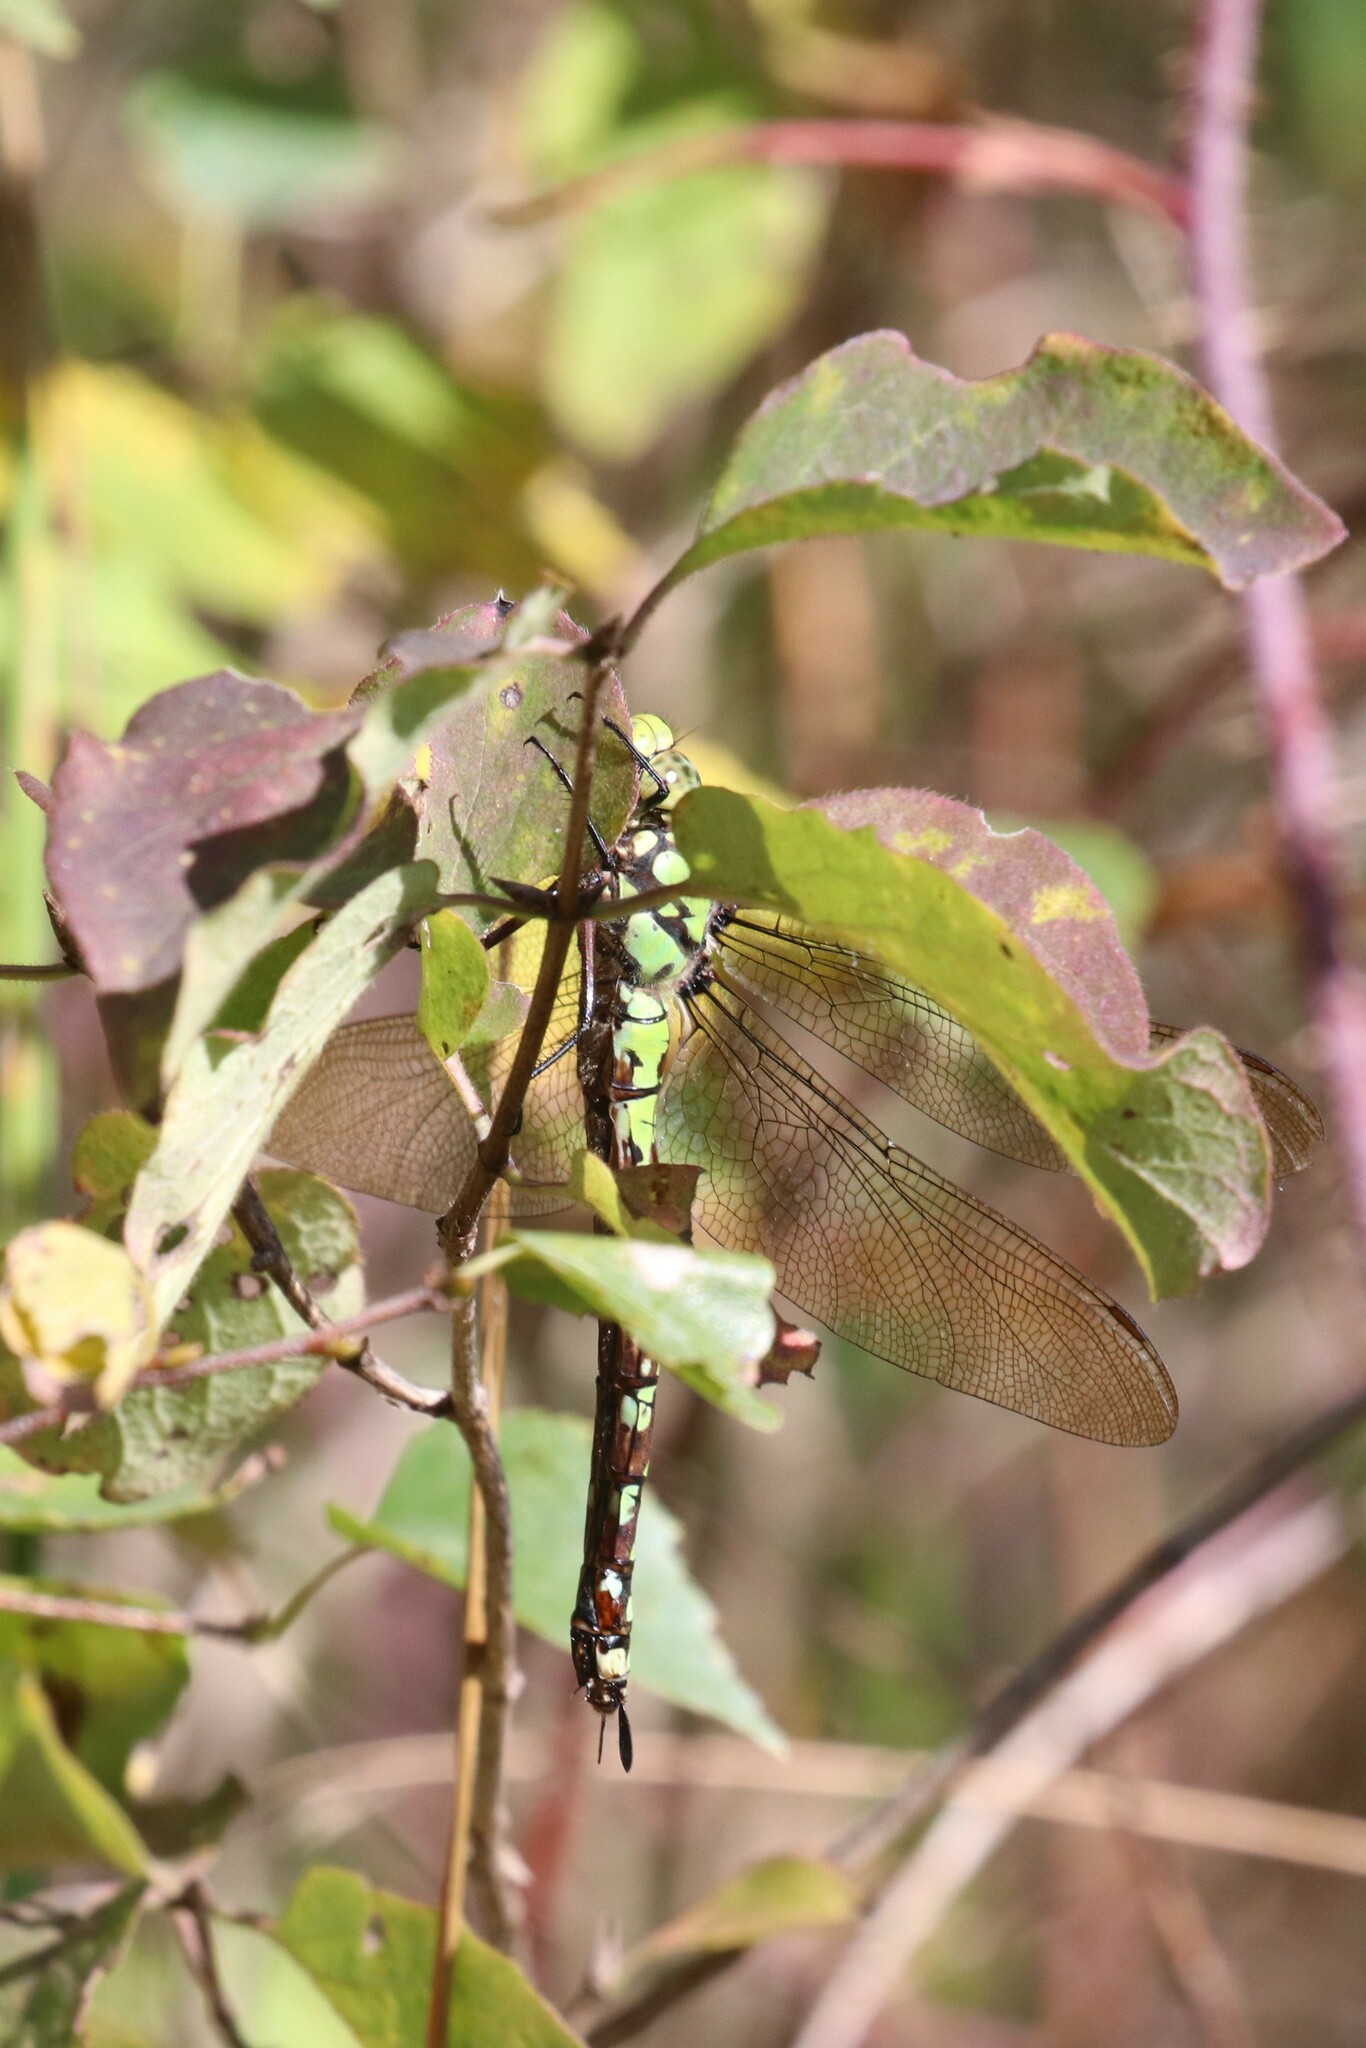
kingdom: Animalia
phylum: Arthropoda
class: Insecta
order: Odonata
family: Aeshnidae
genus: Aeshna
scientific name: Aeshna cyanea
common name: Southern hawker
